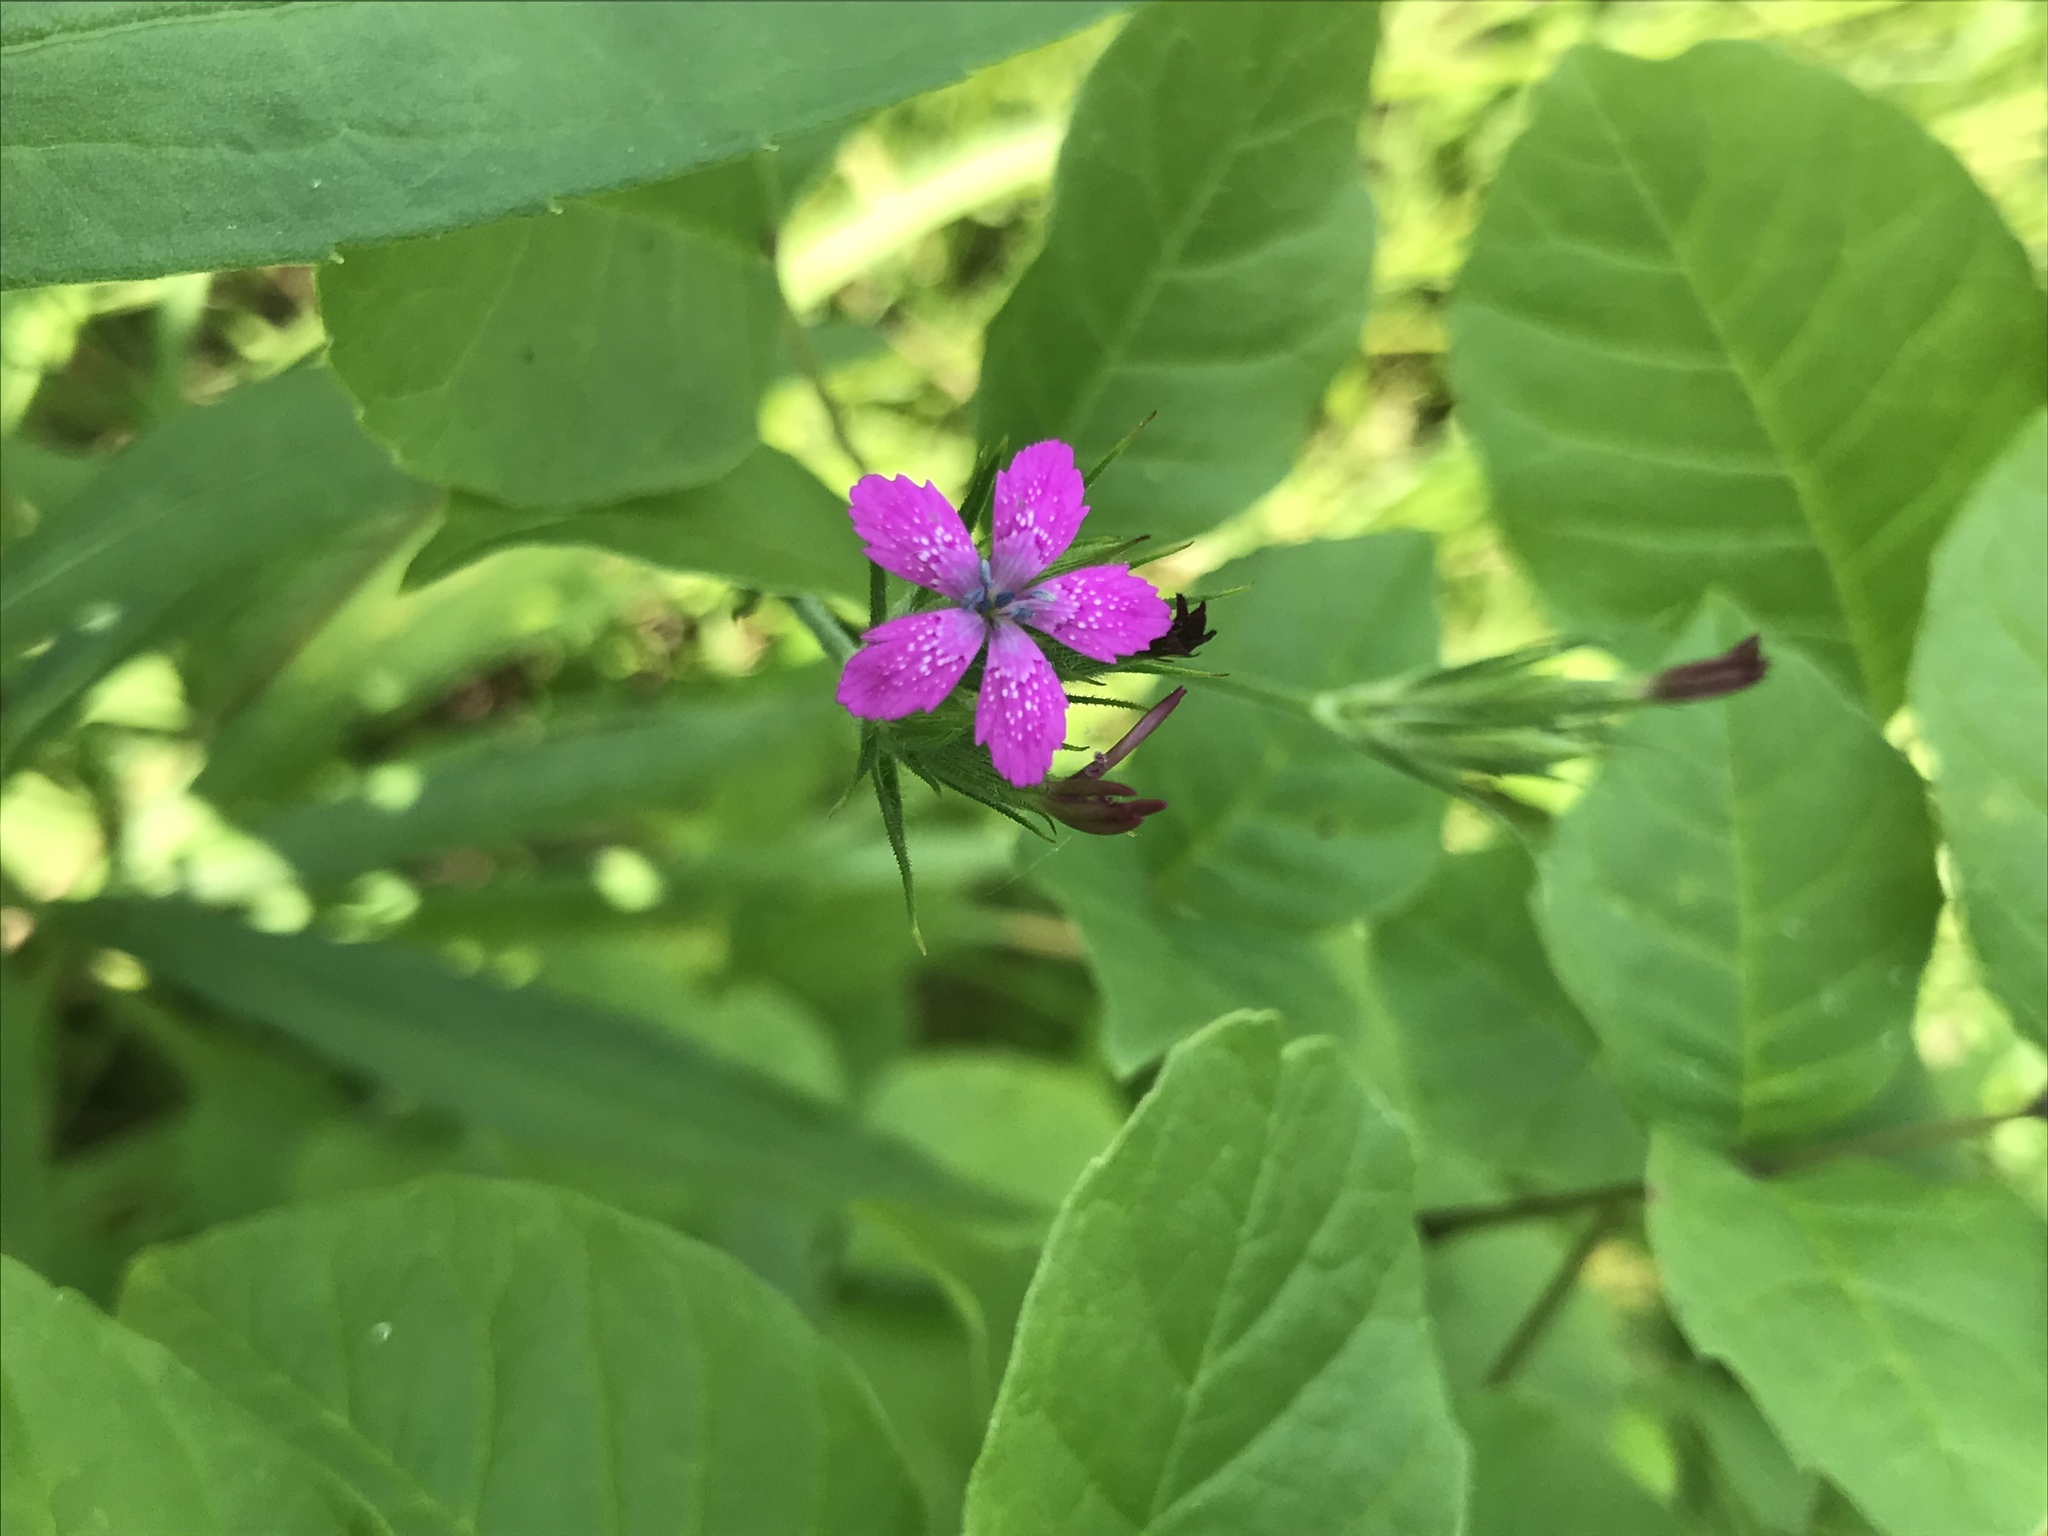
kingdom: Plantae
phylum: Tracheophyta
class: Magnoliopsida
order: Caryophyllales
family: Caryophyllaceae
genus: Dianthus
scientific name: Dianthus armeria
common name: Deptford pink
